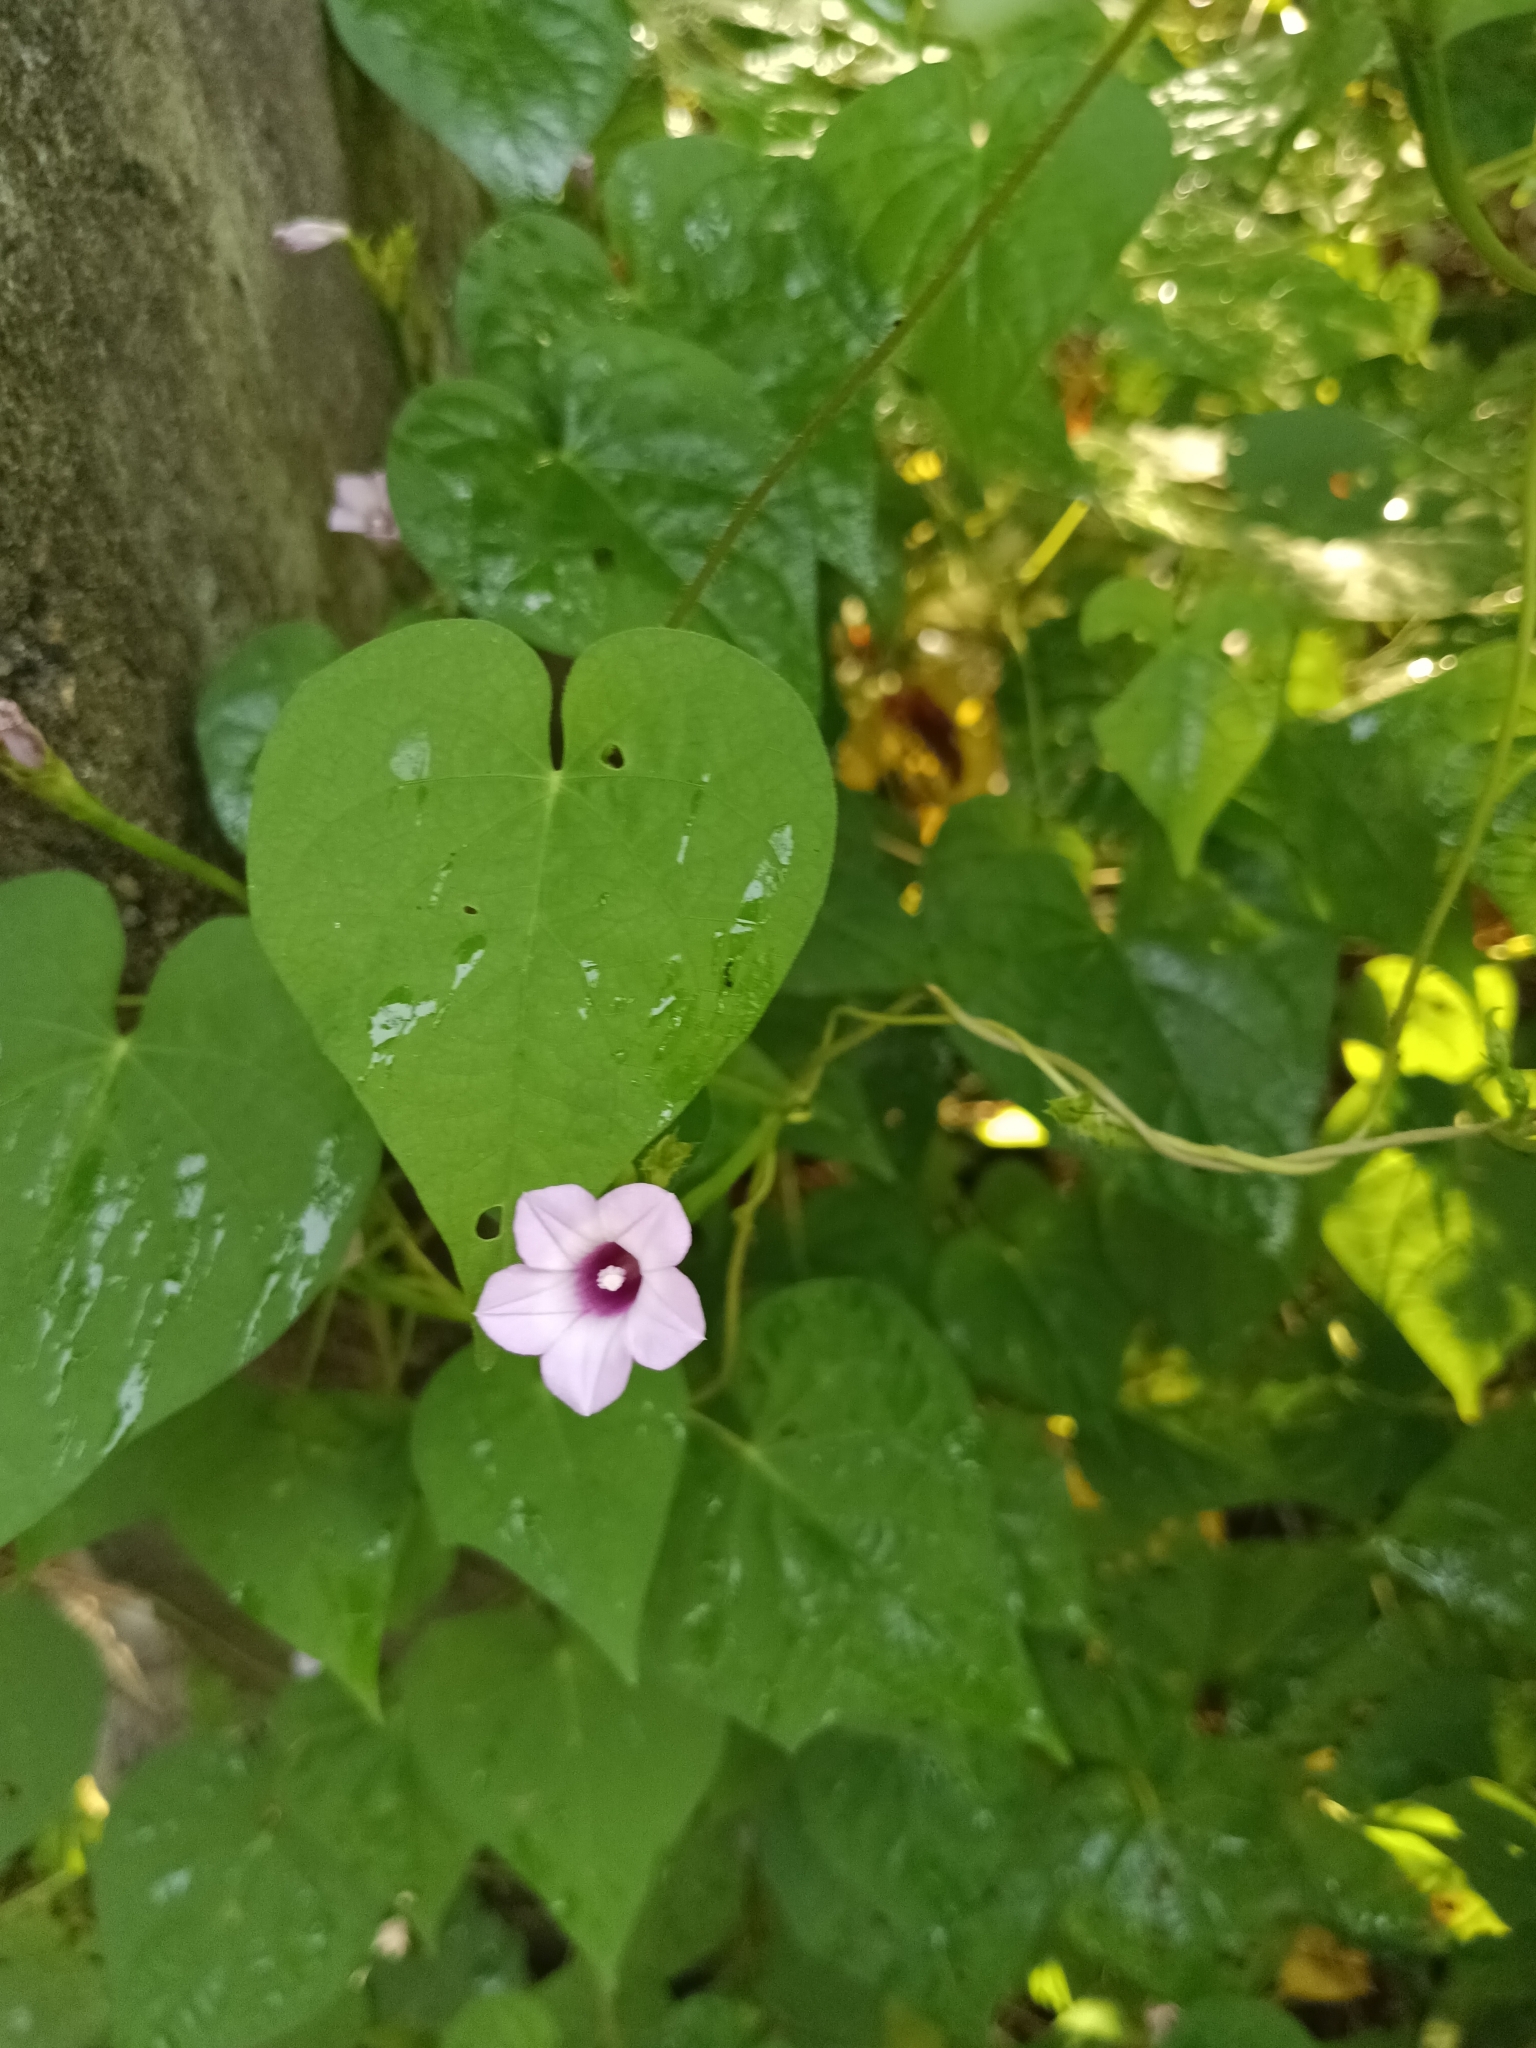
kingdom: Plantae
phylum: Tracheophyta
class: Magnoliopsida
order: Solanales
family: Convolvulaceae
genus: Ipomoea
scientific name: Ipomoea triloba
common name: Little-bell
